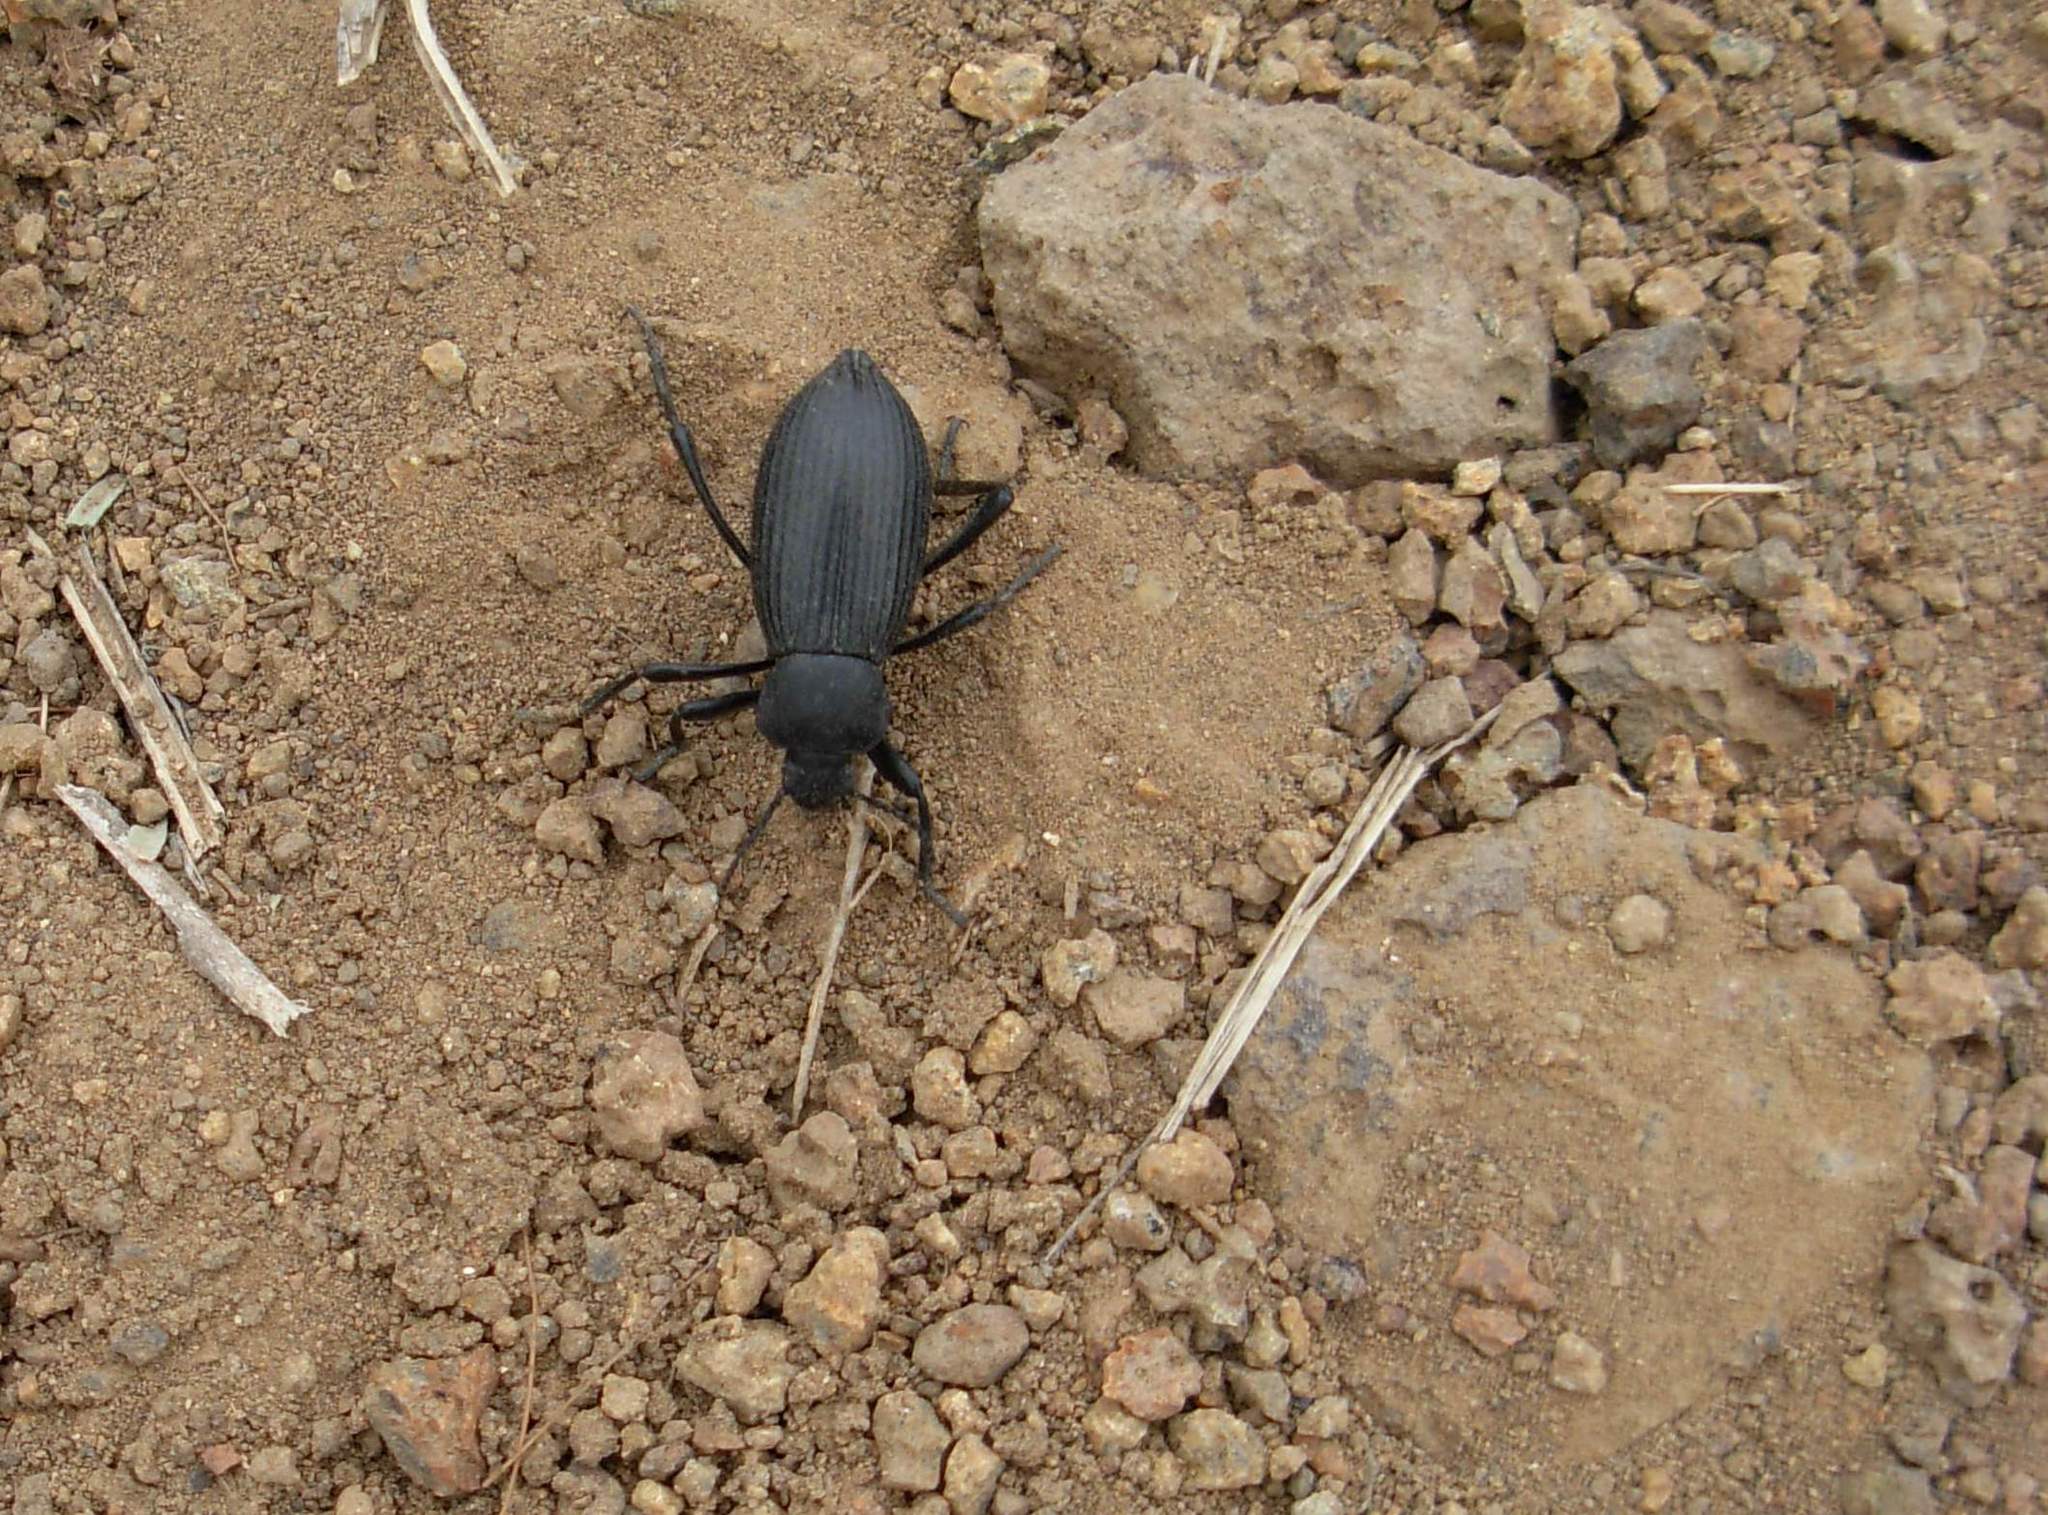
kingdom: Animalia
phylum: Arthropoda
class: Insecta
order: Coleoptera
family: Tenebrionidae
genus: Eleodes
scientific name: Eleodes obscura
